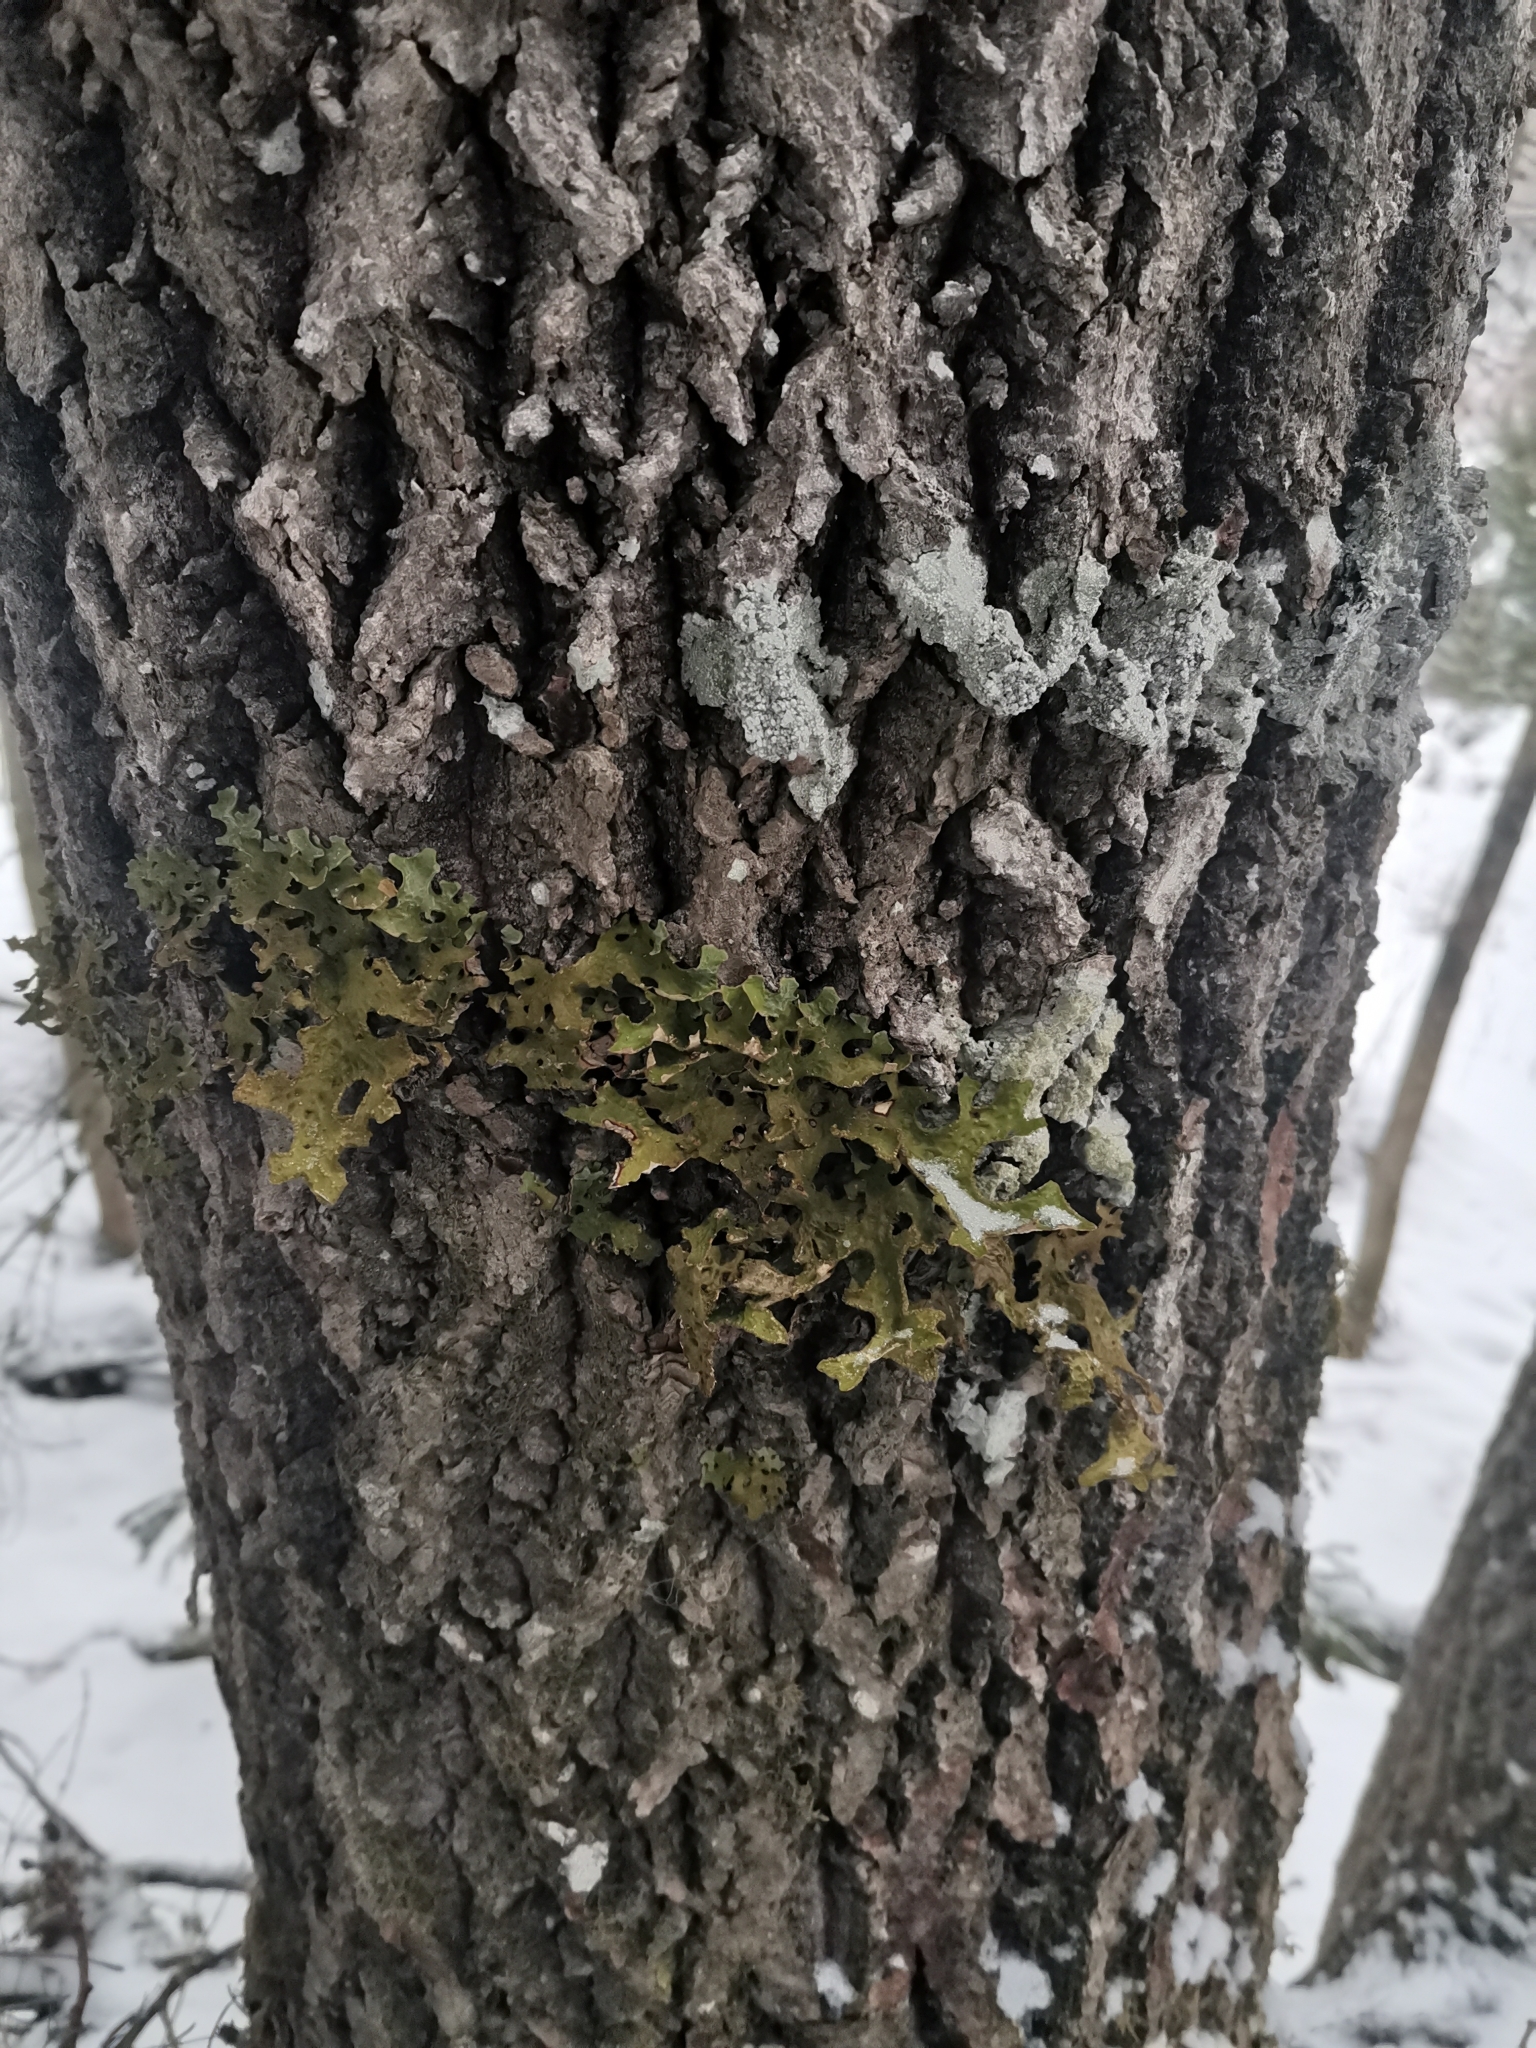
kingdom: Fungi
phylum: Ascomycota
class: Lecanoromycetes
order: Peltigerales
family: Lobariaceae
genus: Lobaria
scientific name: Lobaria pulmonaria
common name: Lungwort
